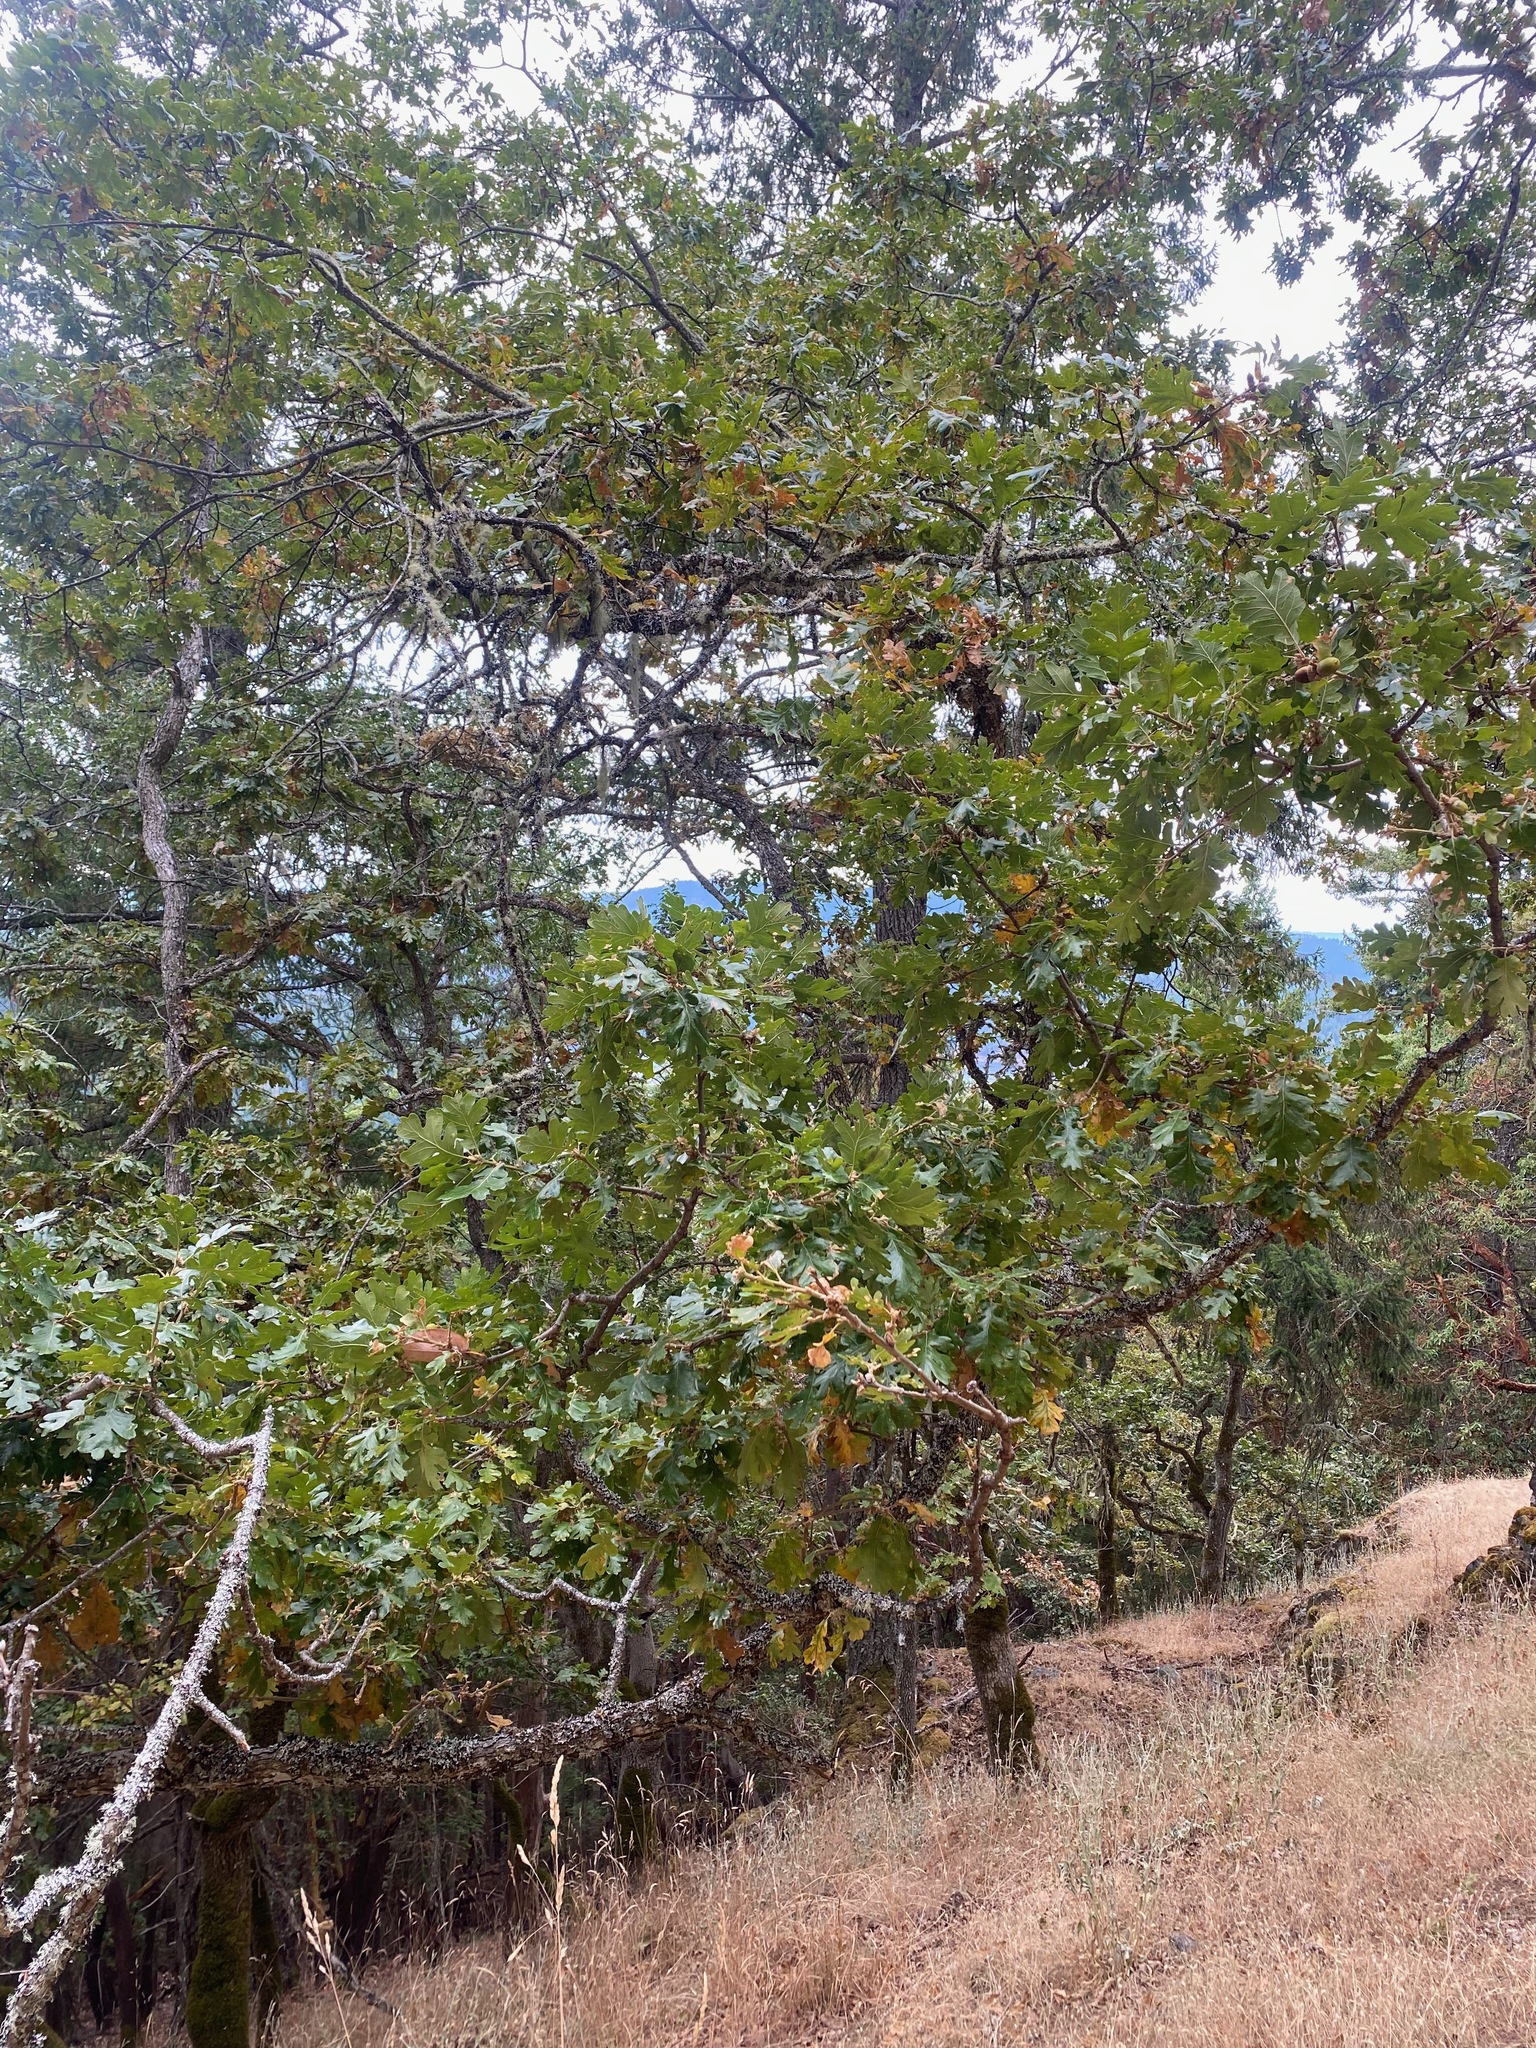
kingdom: Plantae
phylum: Tracheophyta
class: Magnoliopsida
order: Fagales
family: Fagaceae
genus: Quercus
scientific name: Quercus garryana
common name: Garry oak
